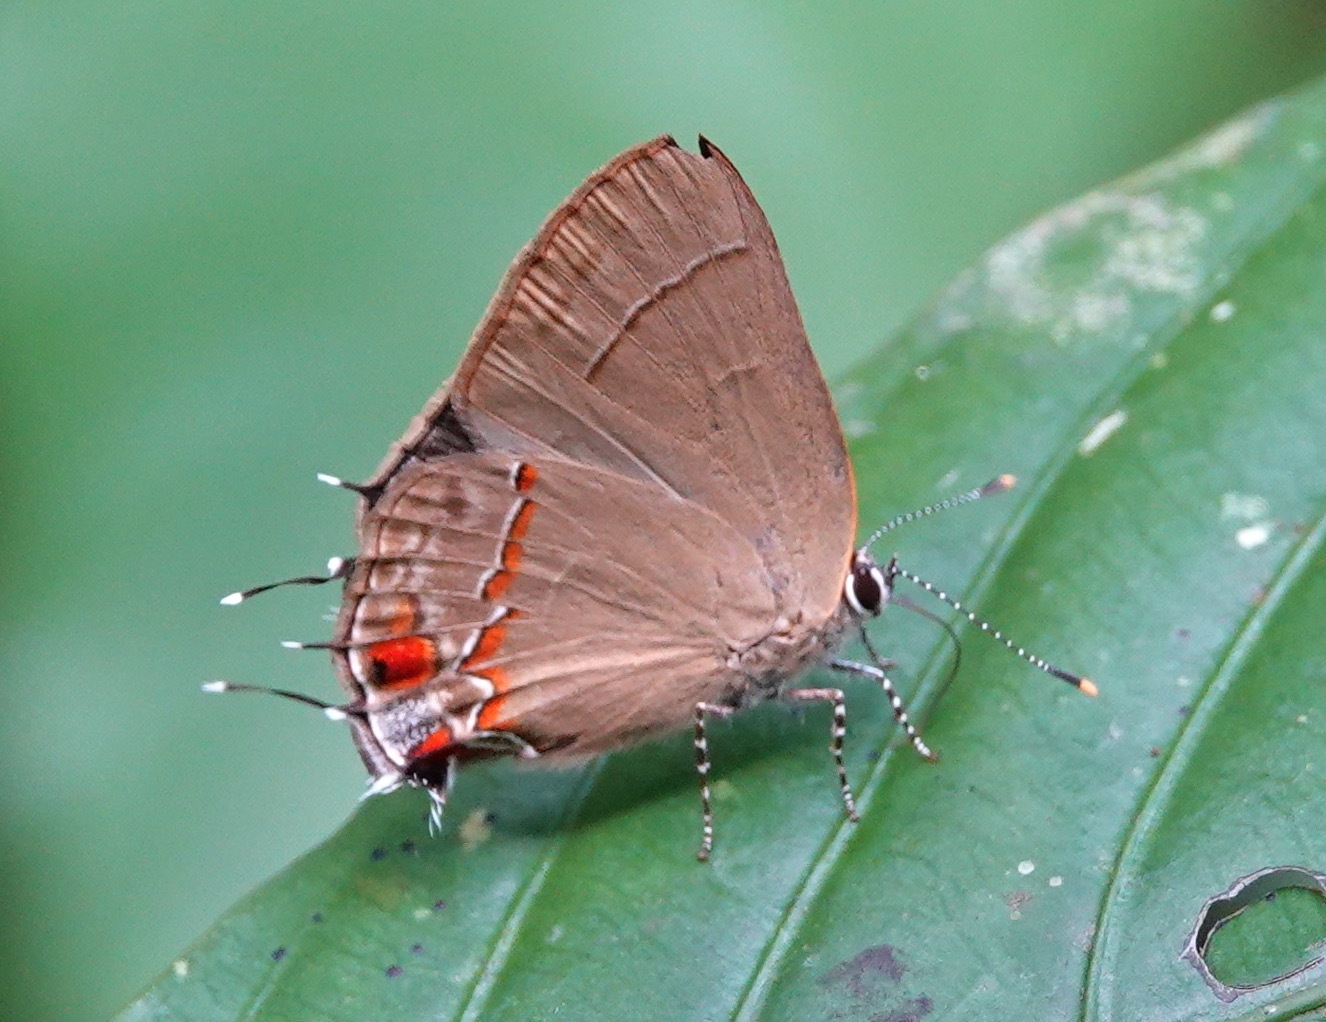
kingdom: Animalia
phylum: Arthropoda
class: Insecta
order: Lepidoptera
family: Lycaenidae
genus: Thecla
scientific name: Thecla ceromia
